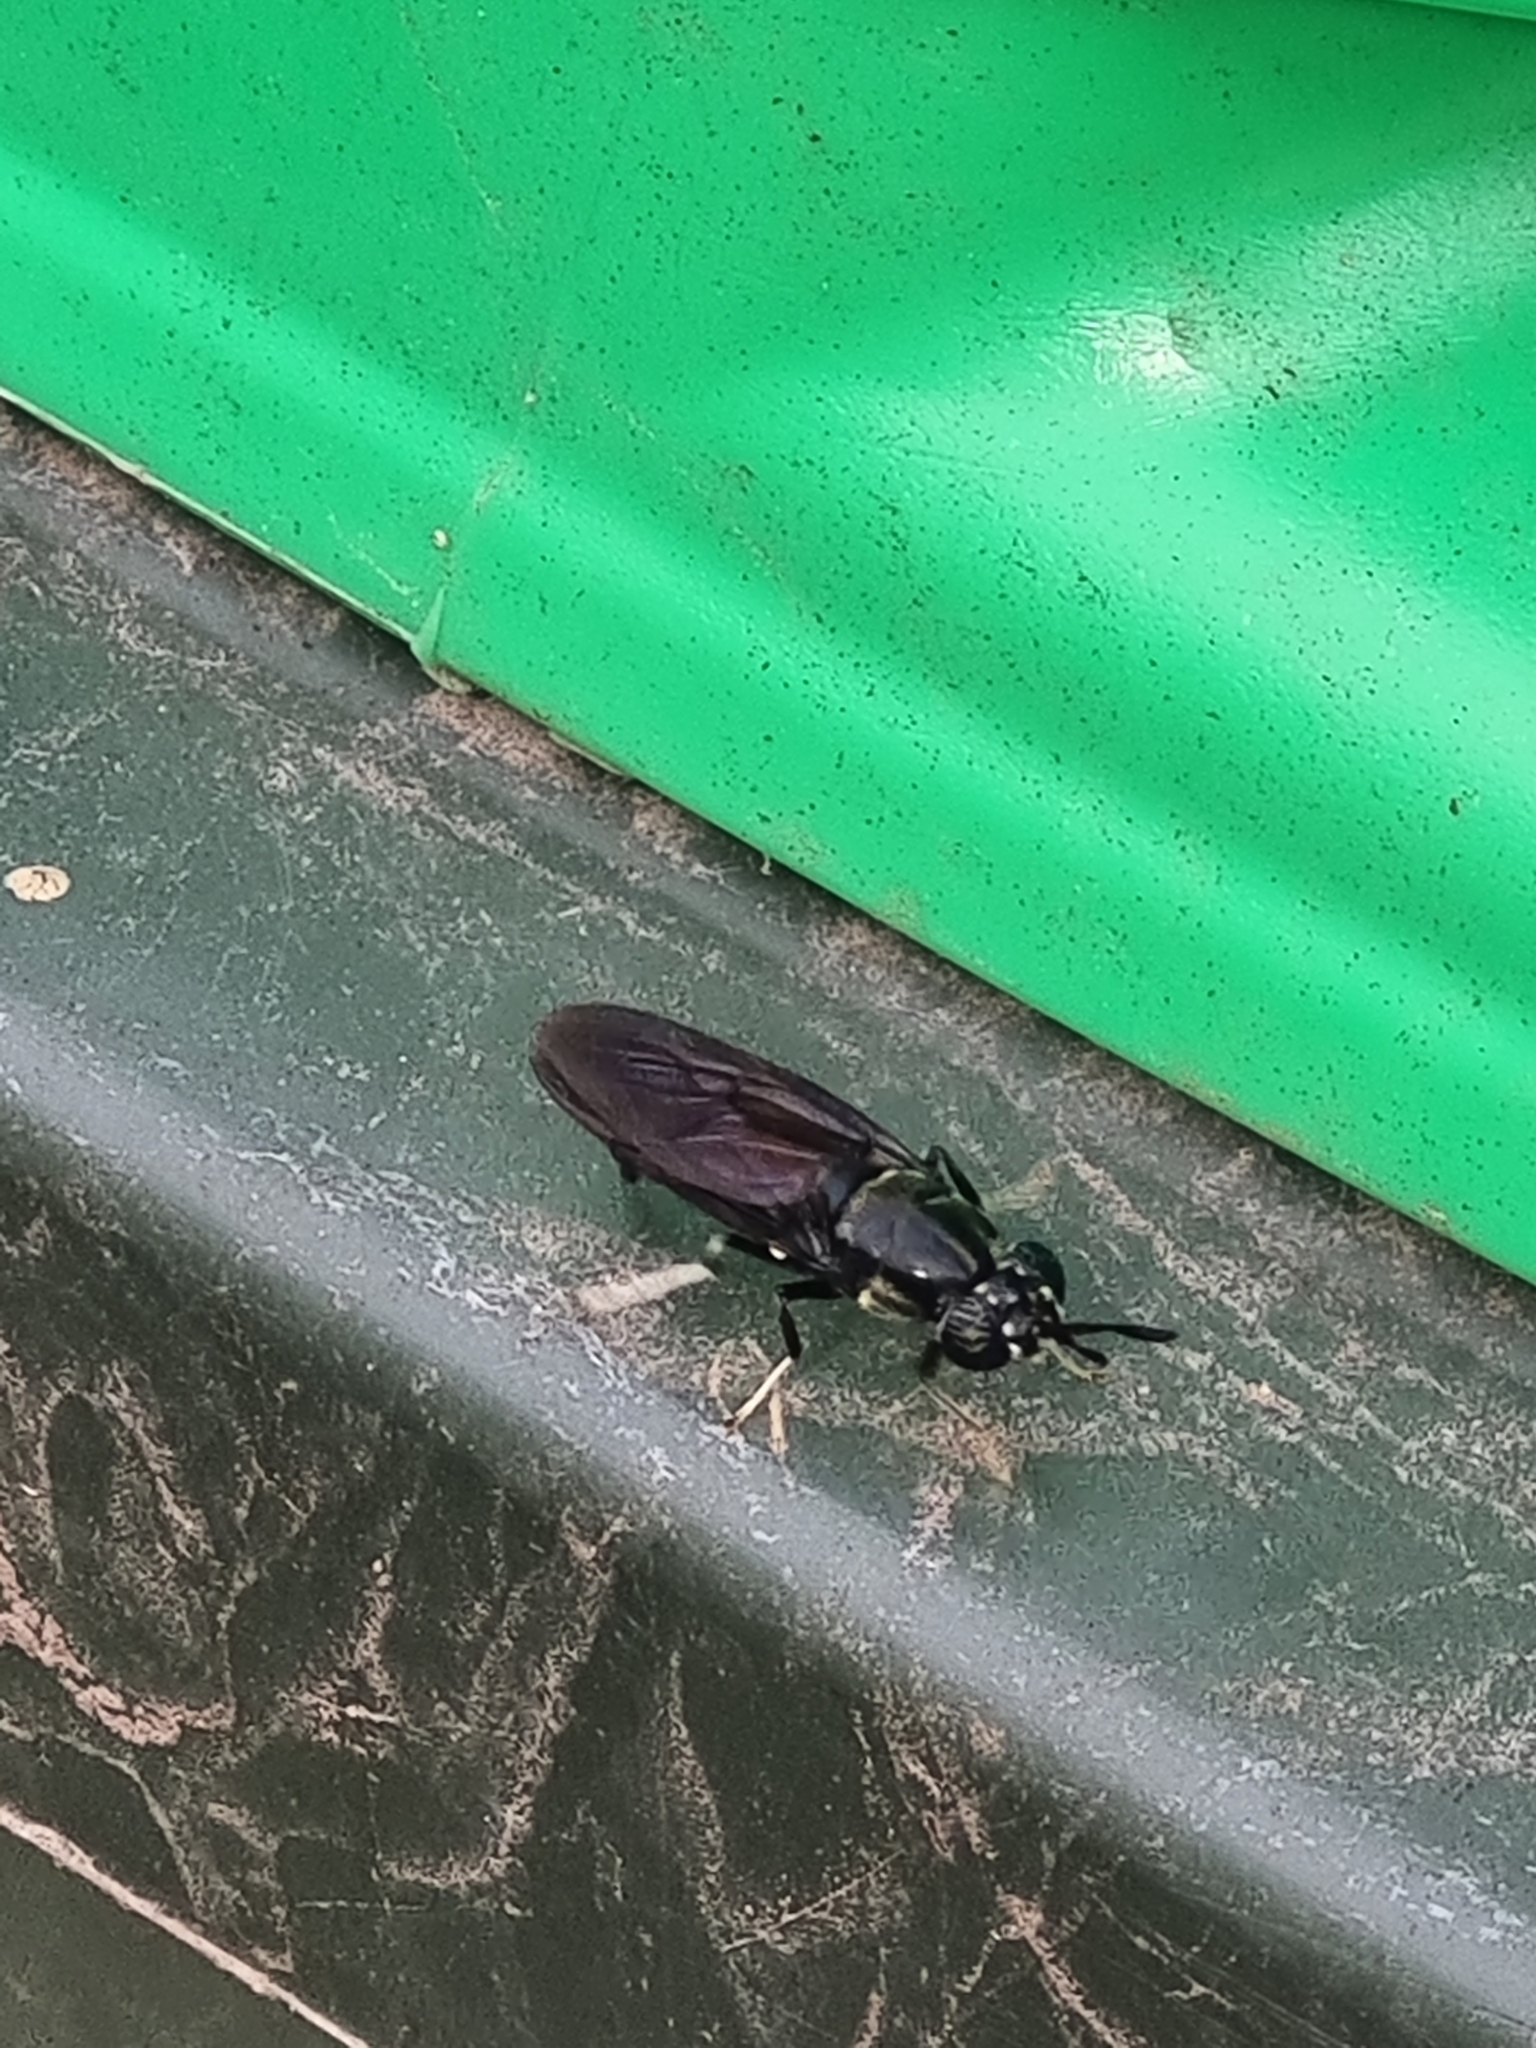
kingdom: Animalia
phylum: Arthropoda
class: Insecta
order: Diptera
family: Stratiomyidae
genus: Hermetia
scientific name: Hermetia illucens
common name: Black soldier fly
